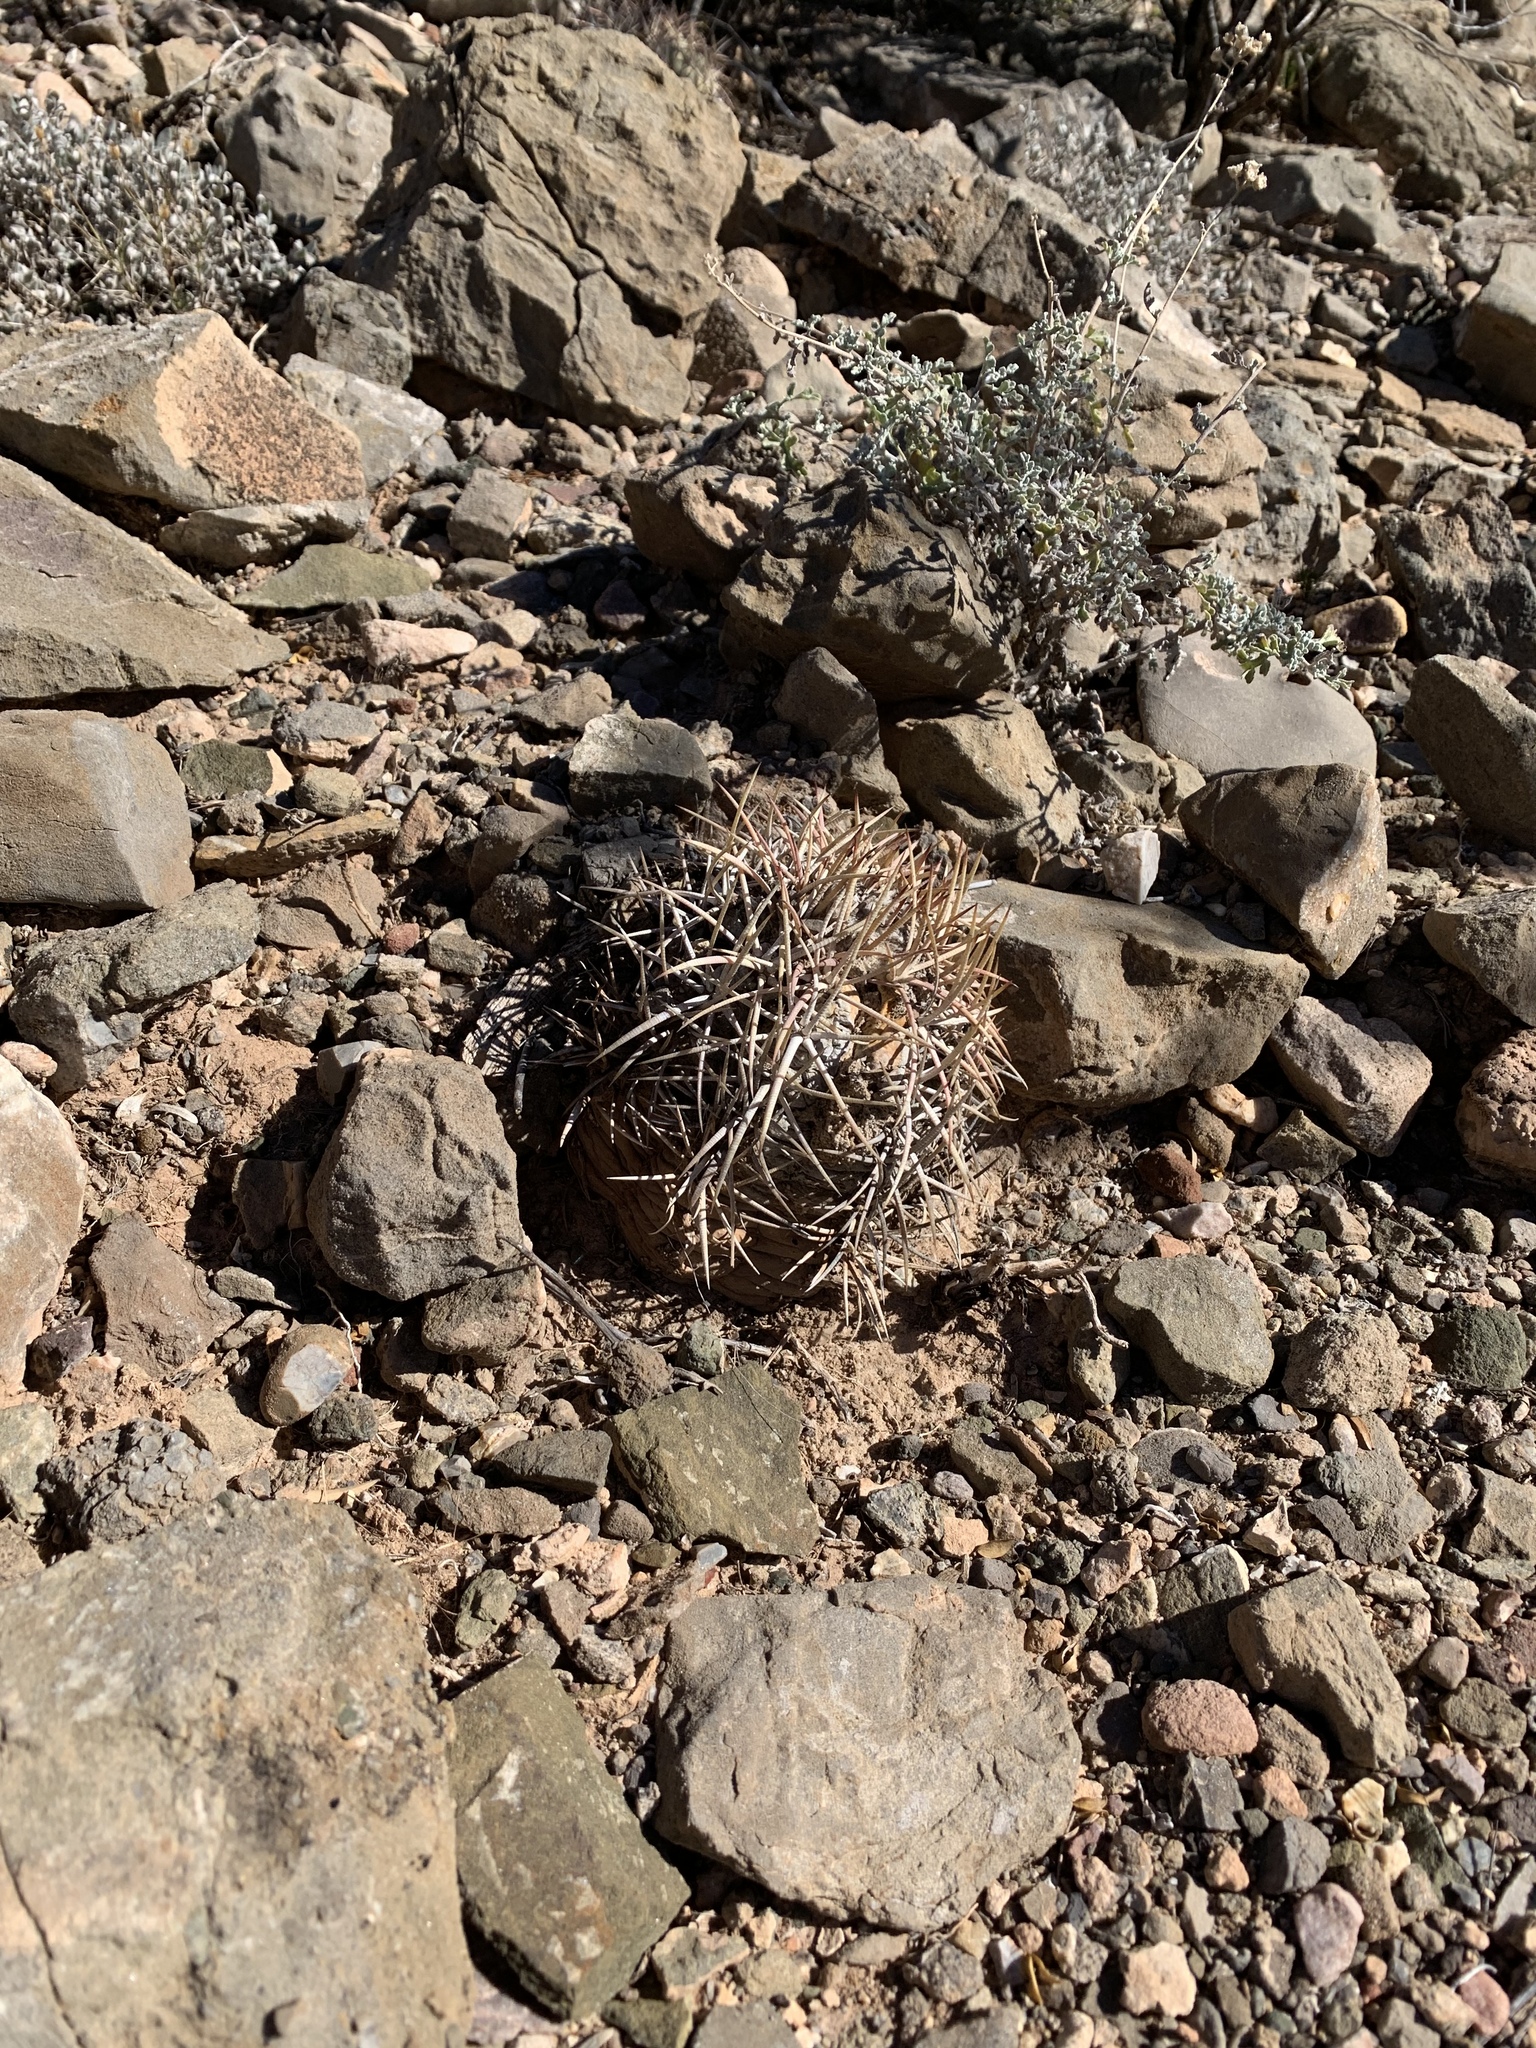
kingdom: Plantae
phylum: Tracheophyta
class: Magnoliopsida
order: Caryophyllales
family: Cactaceae
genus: Echinocactus
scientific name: Echinocactus horizonthalonius
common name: Devilshead
